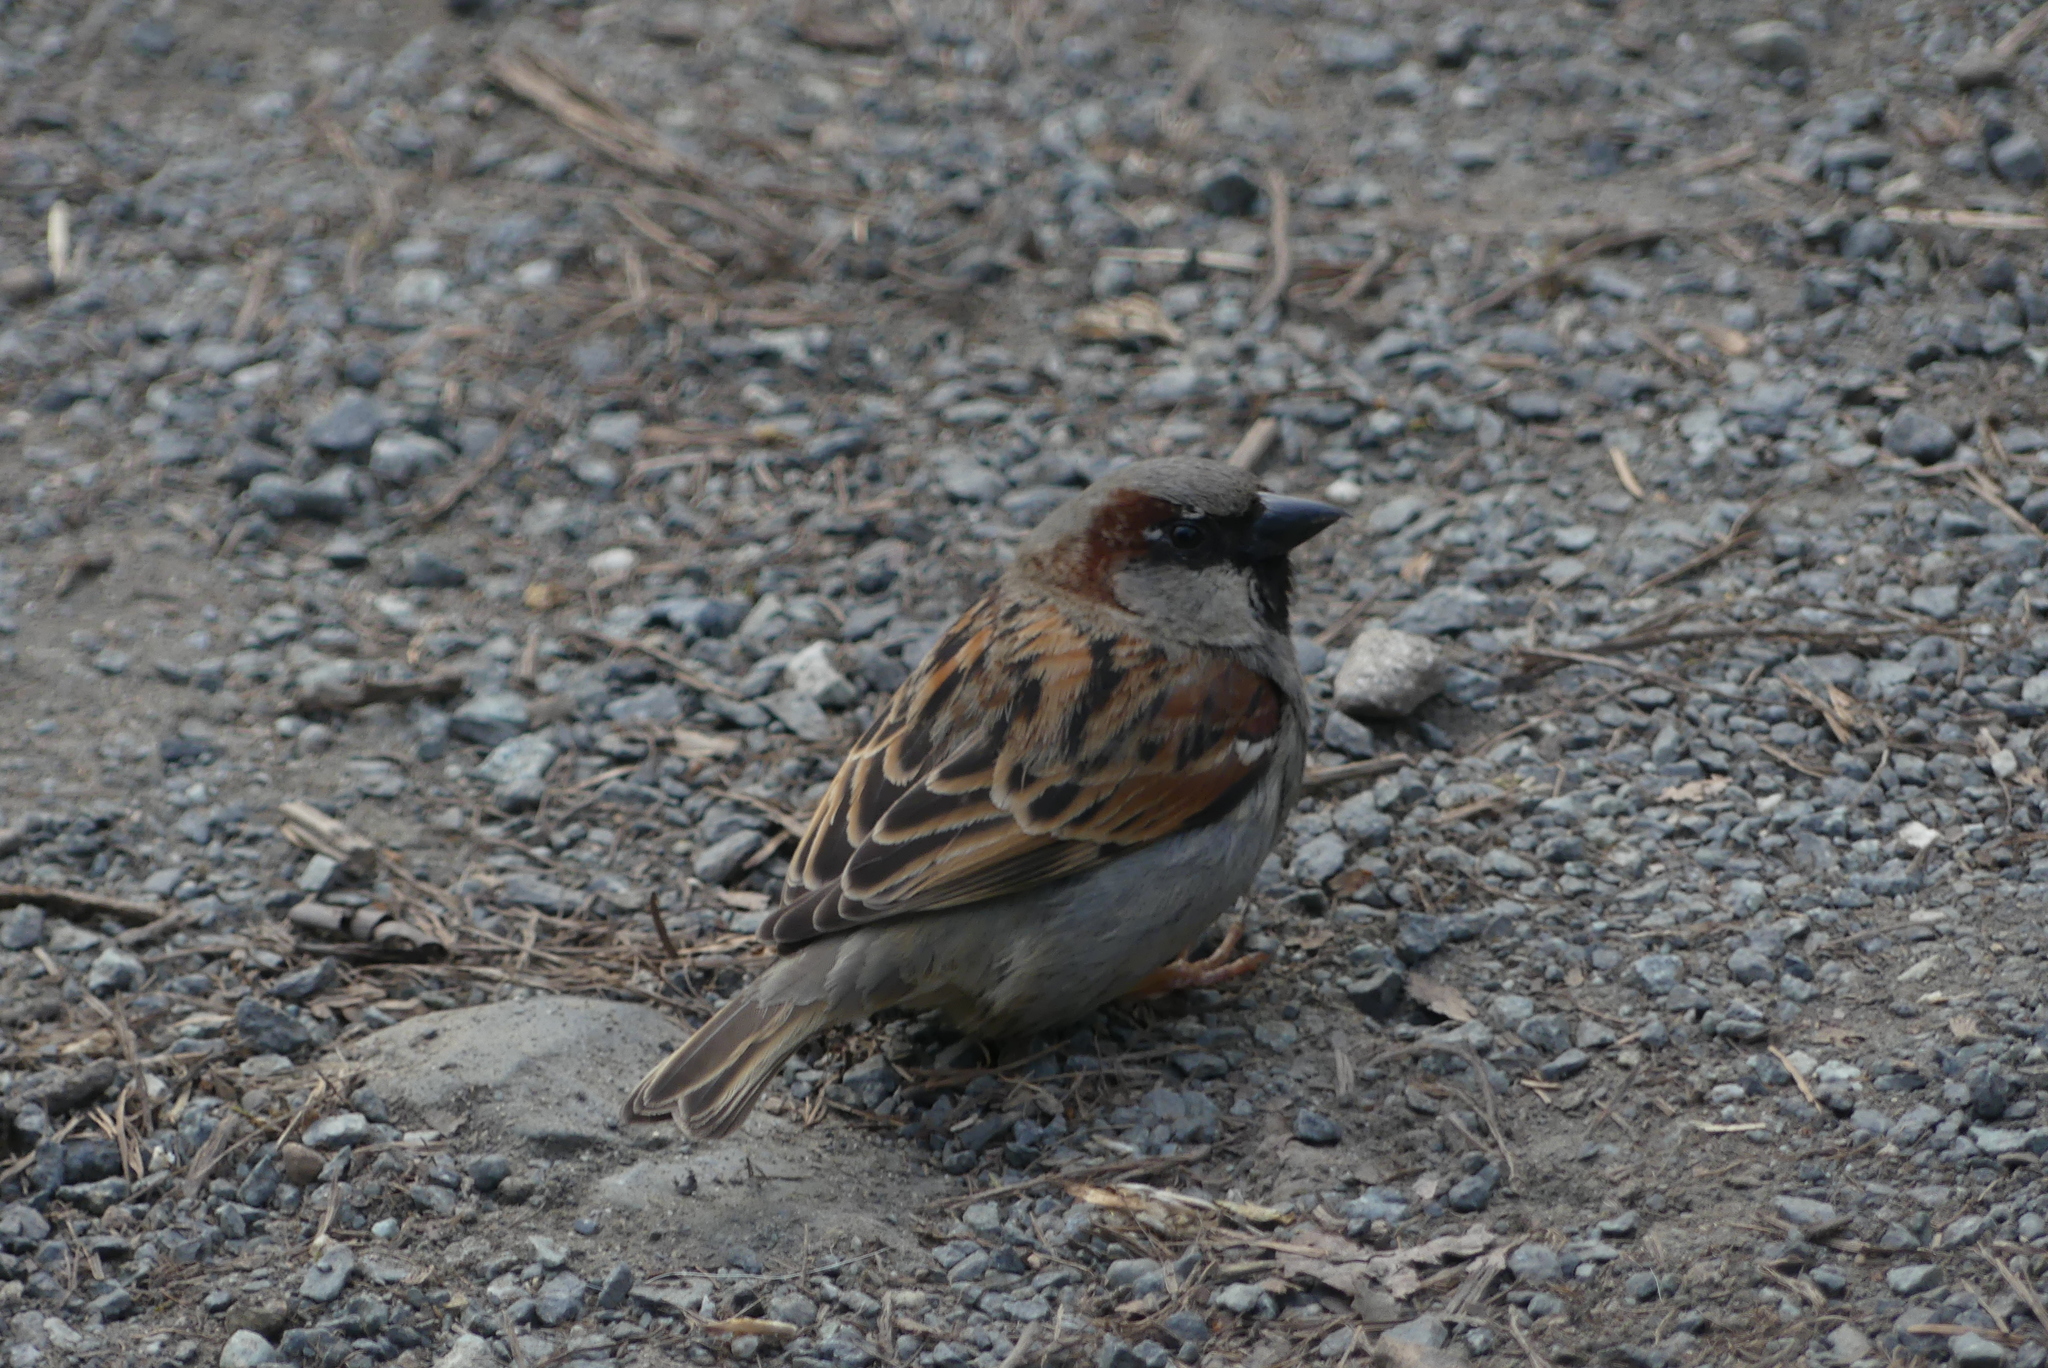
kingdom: Animalia
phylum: Chordata
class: Aves
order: Passeriformes
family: Passeridae
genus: Passer
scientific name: Passer domesticus
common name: House sparrow
